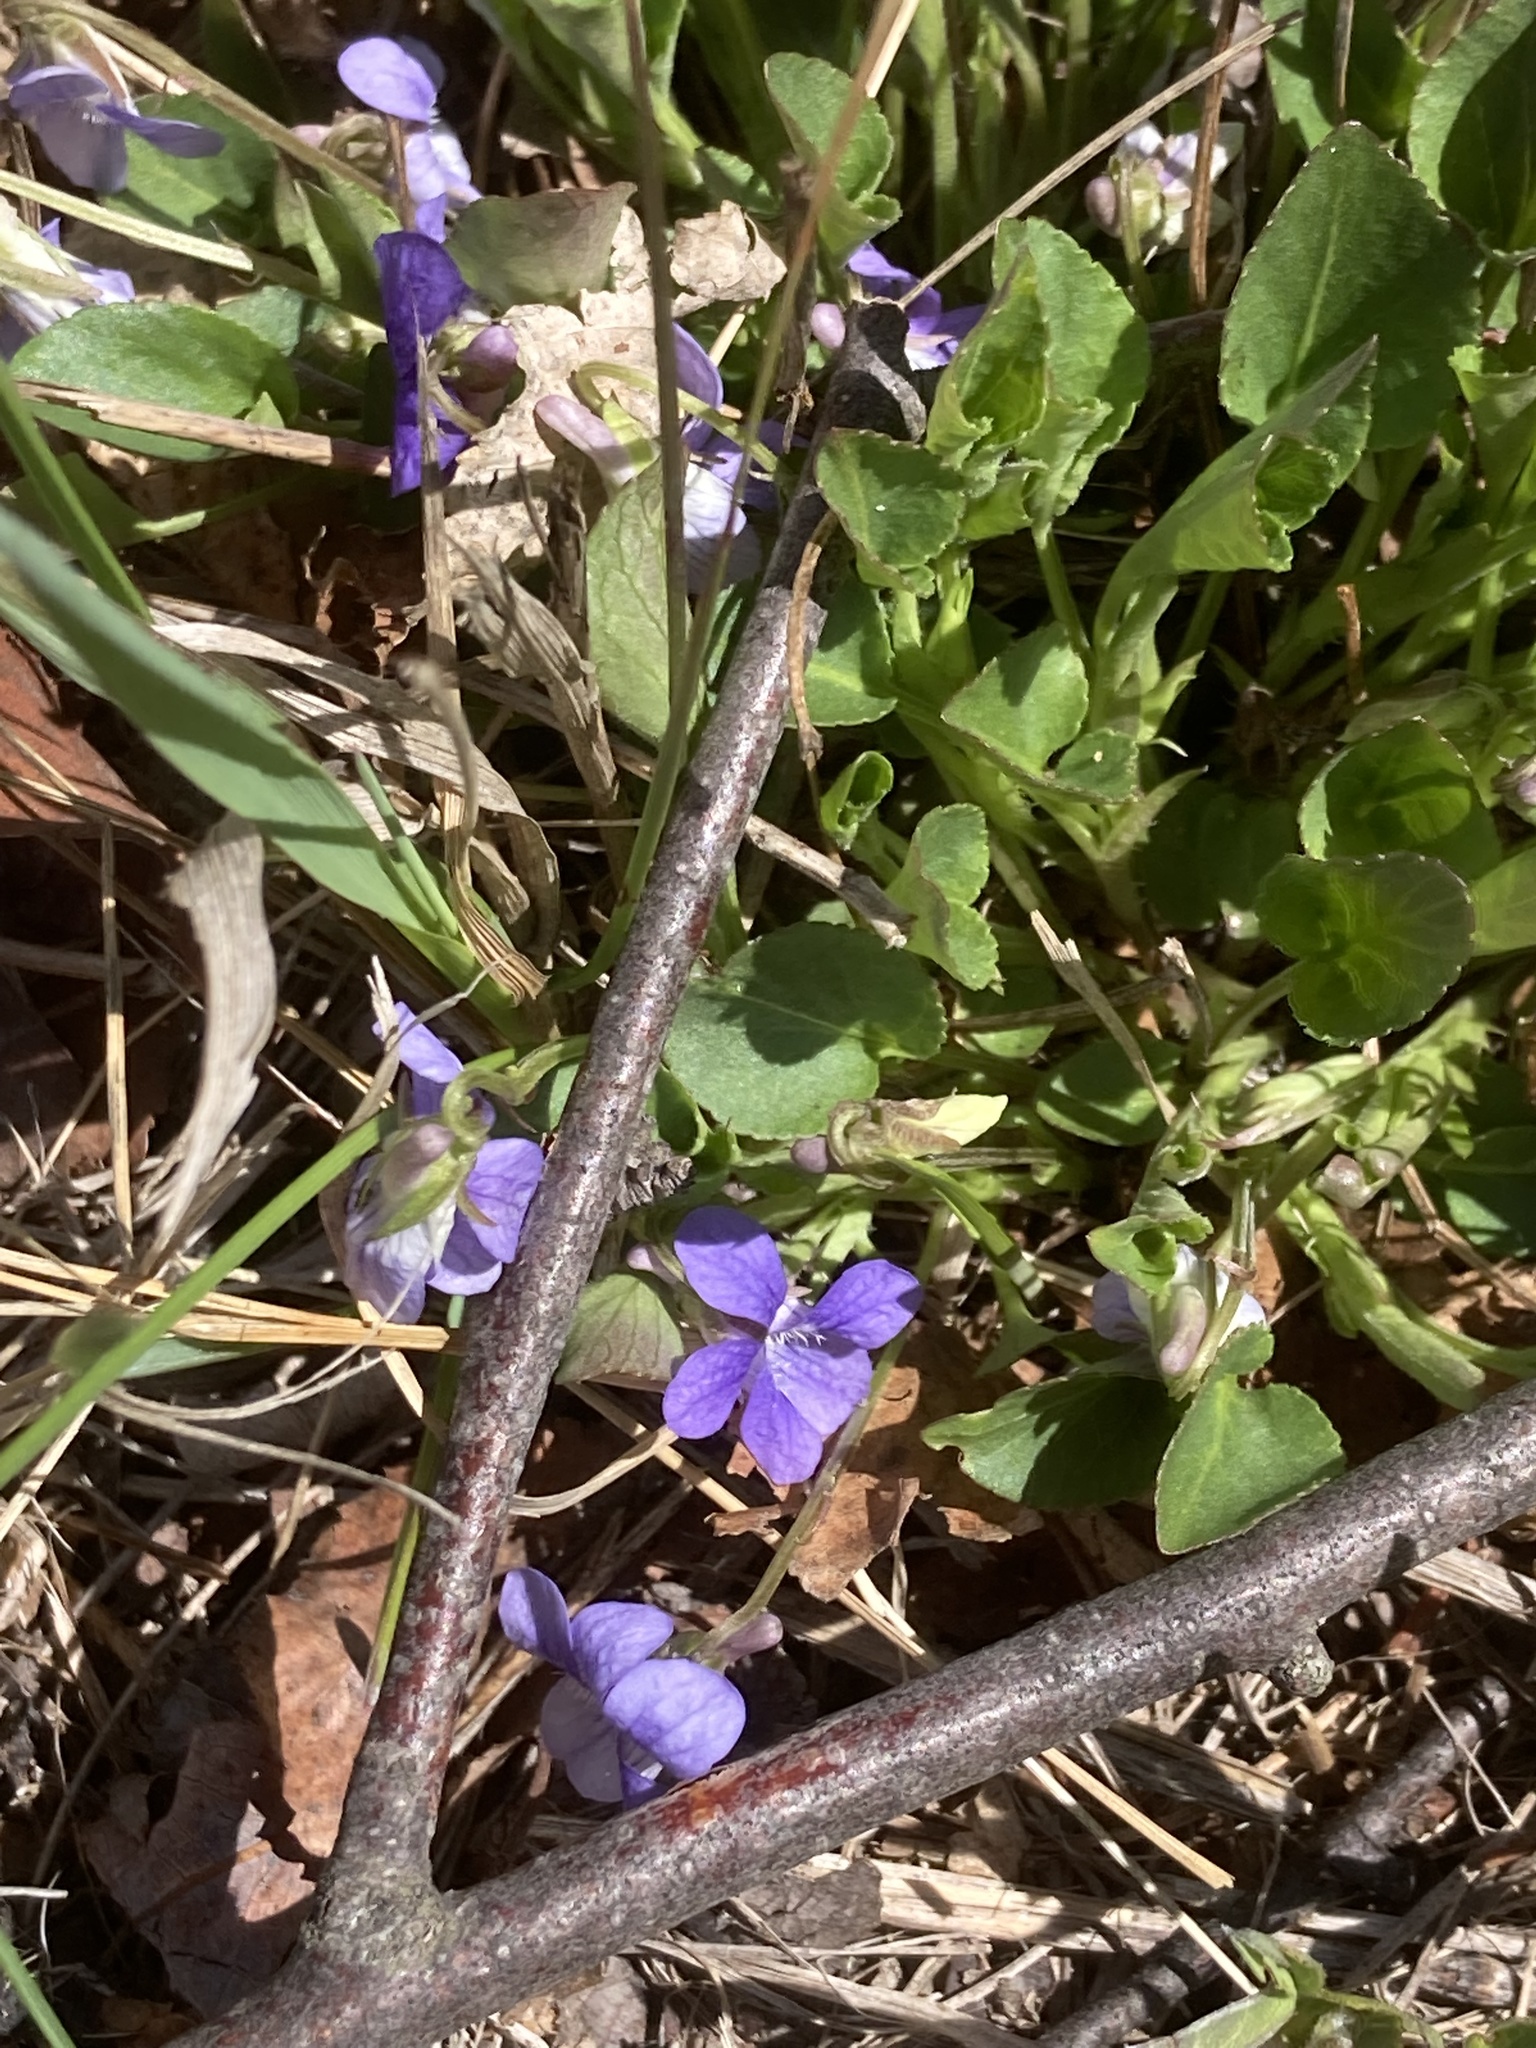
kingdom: Plantae
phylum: Tracheophyta
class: Magnoliopsida
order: Malpighiales
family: Violaceae
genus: Viola
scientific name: Viola adunca
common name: Sand violet
